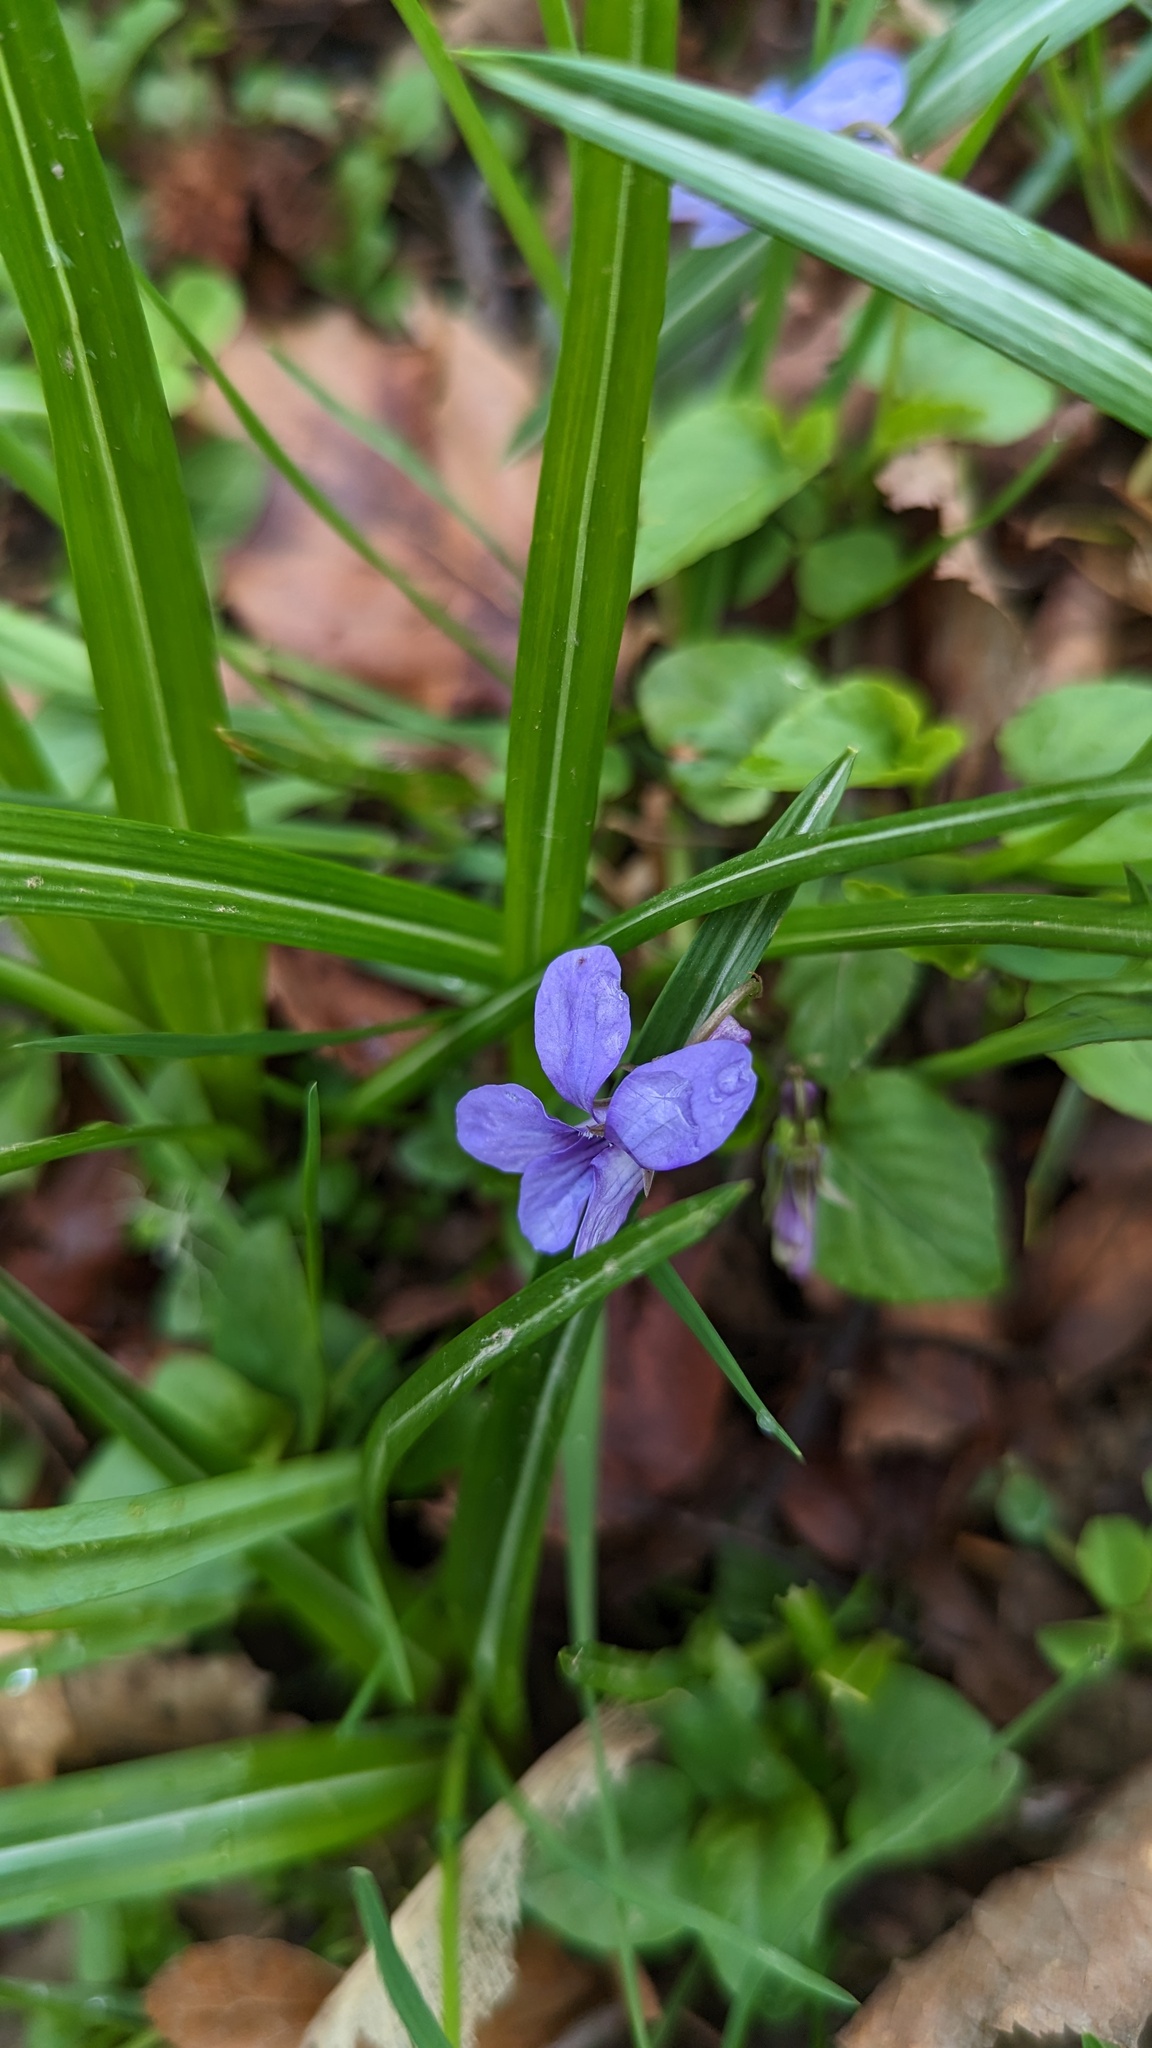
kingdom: Plantae
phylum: Tracheophyta
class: Magnoliopsida
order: Malpighiales
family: Violaceae
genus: Viola
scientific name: Viola reichenbachiana
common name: Early dog-violet
